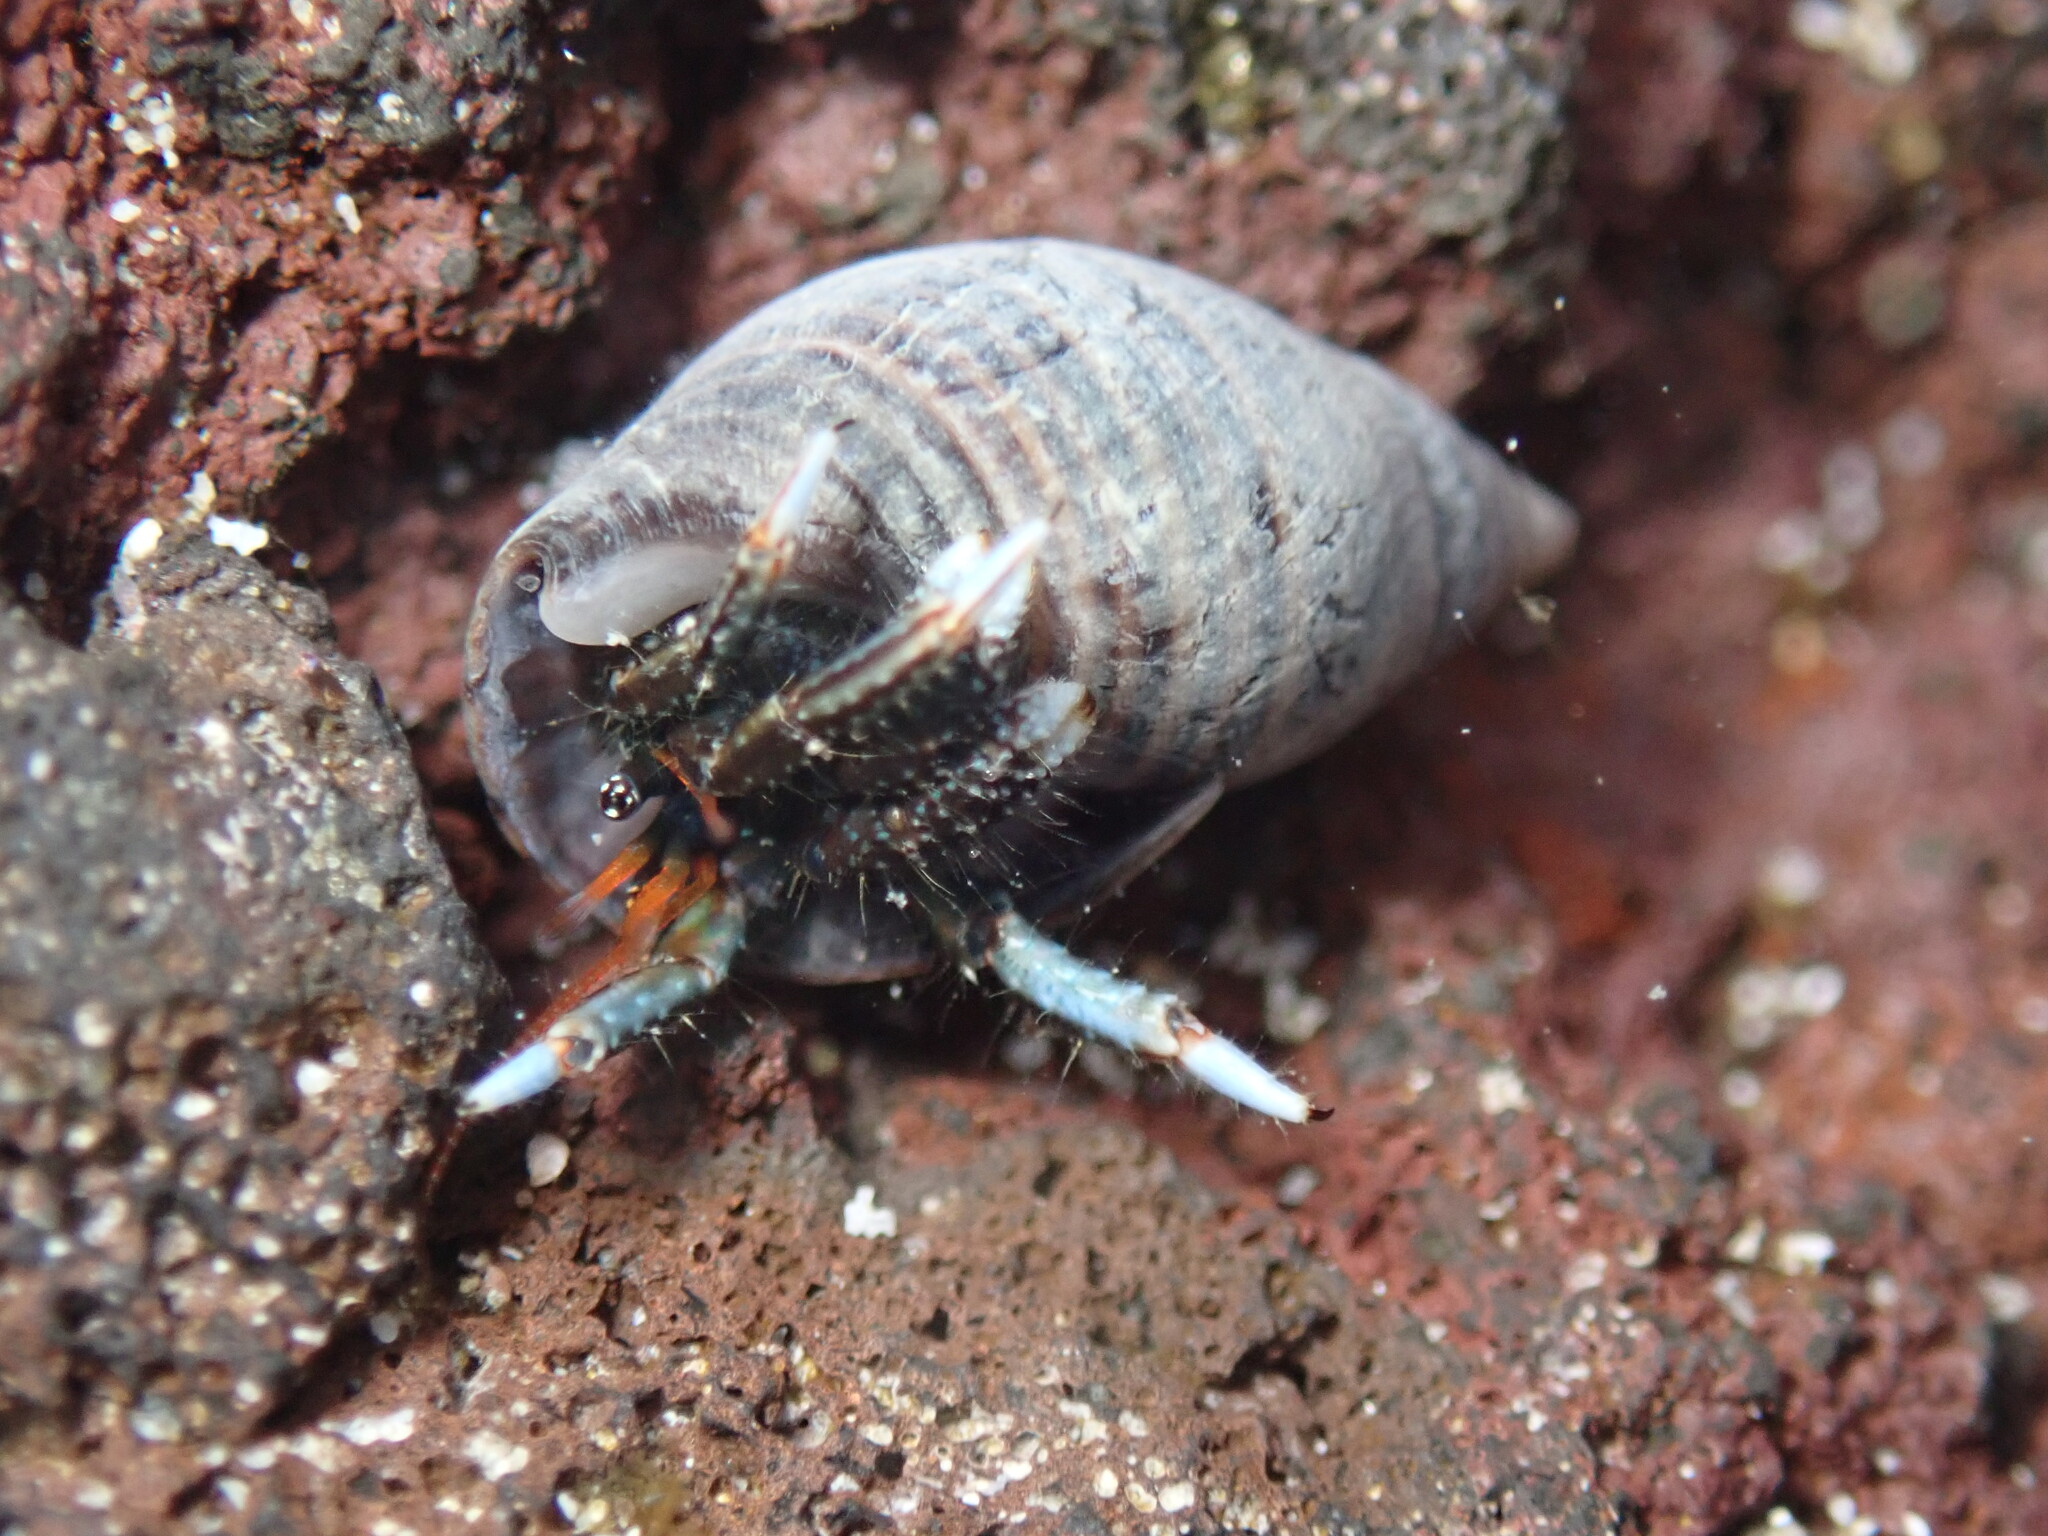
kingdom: Animalia
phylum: Arthropoda
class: Malacostraca
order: Decapoda
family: Diogenidae
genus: Clibanarius
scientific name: Clibanarius zebra
